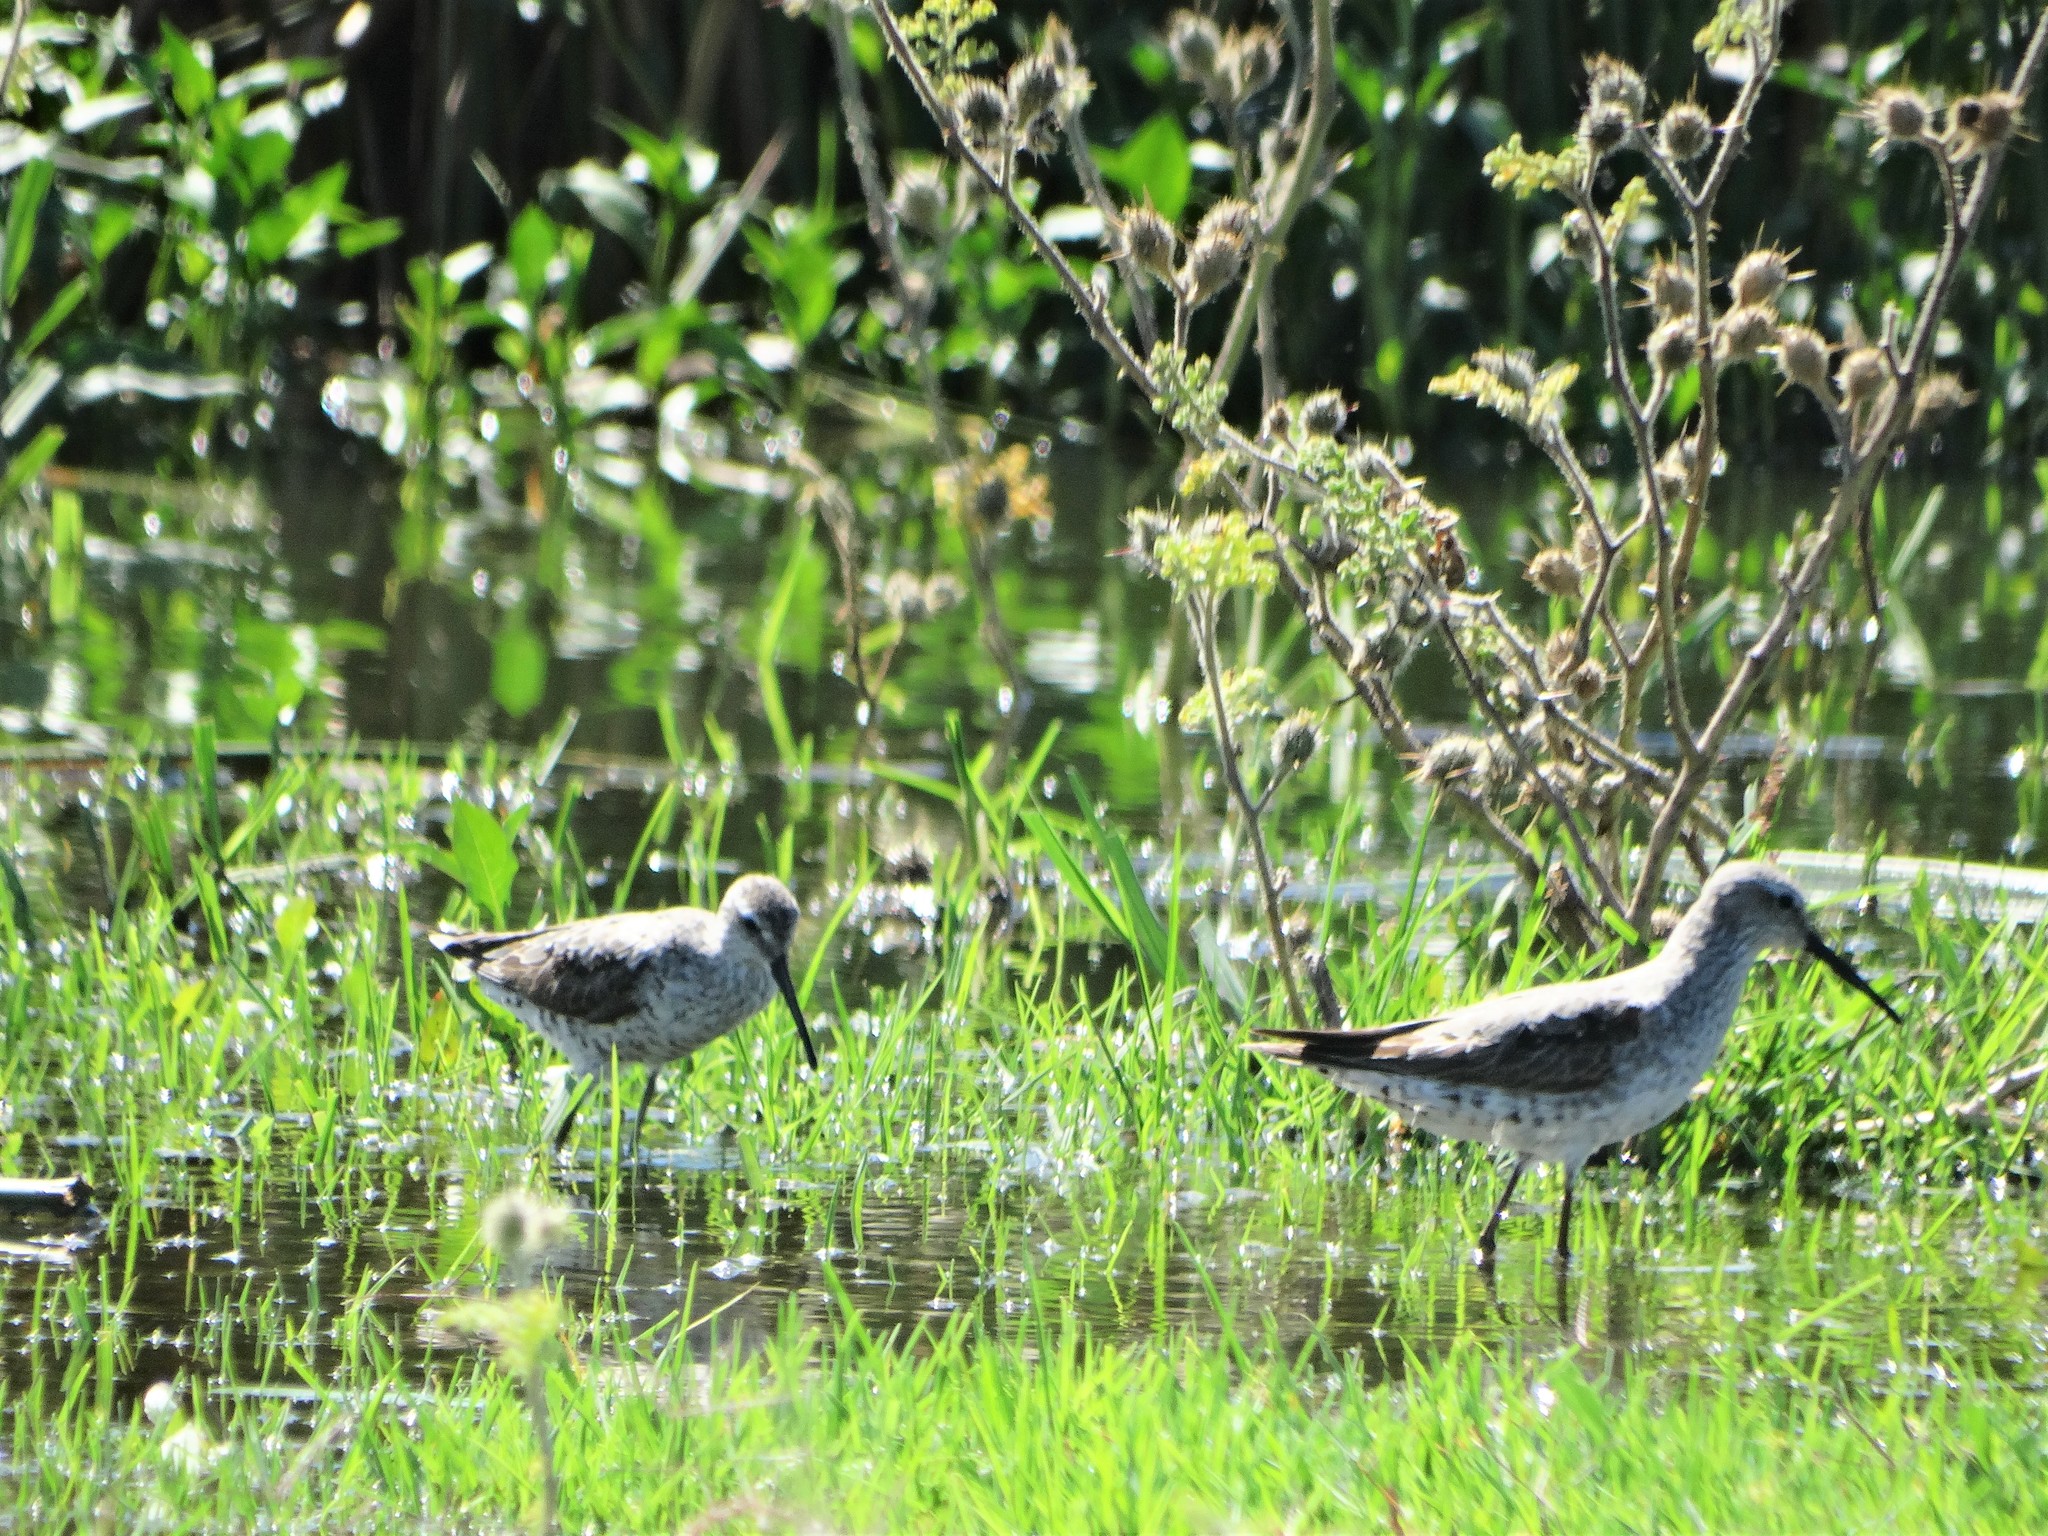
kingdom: Animalia
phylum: Chordata
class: Aves
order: Charadriiformes
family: Scolopacidae
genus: Calidris
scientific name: Calidris himantopus
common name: Stilt sandpiper
